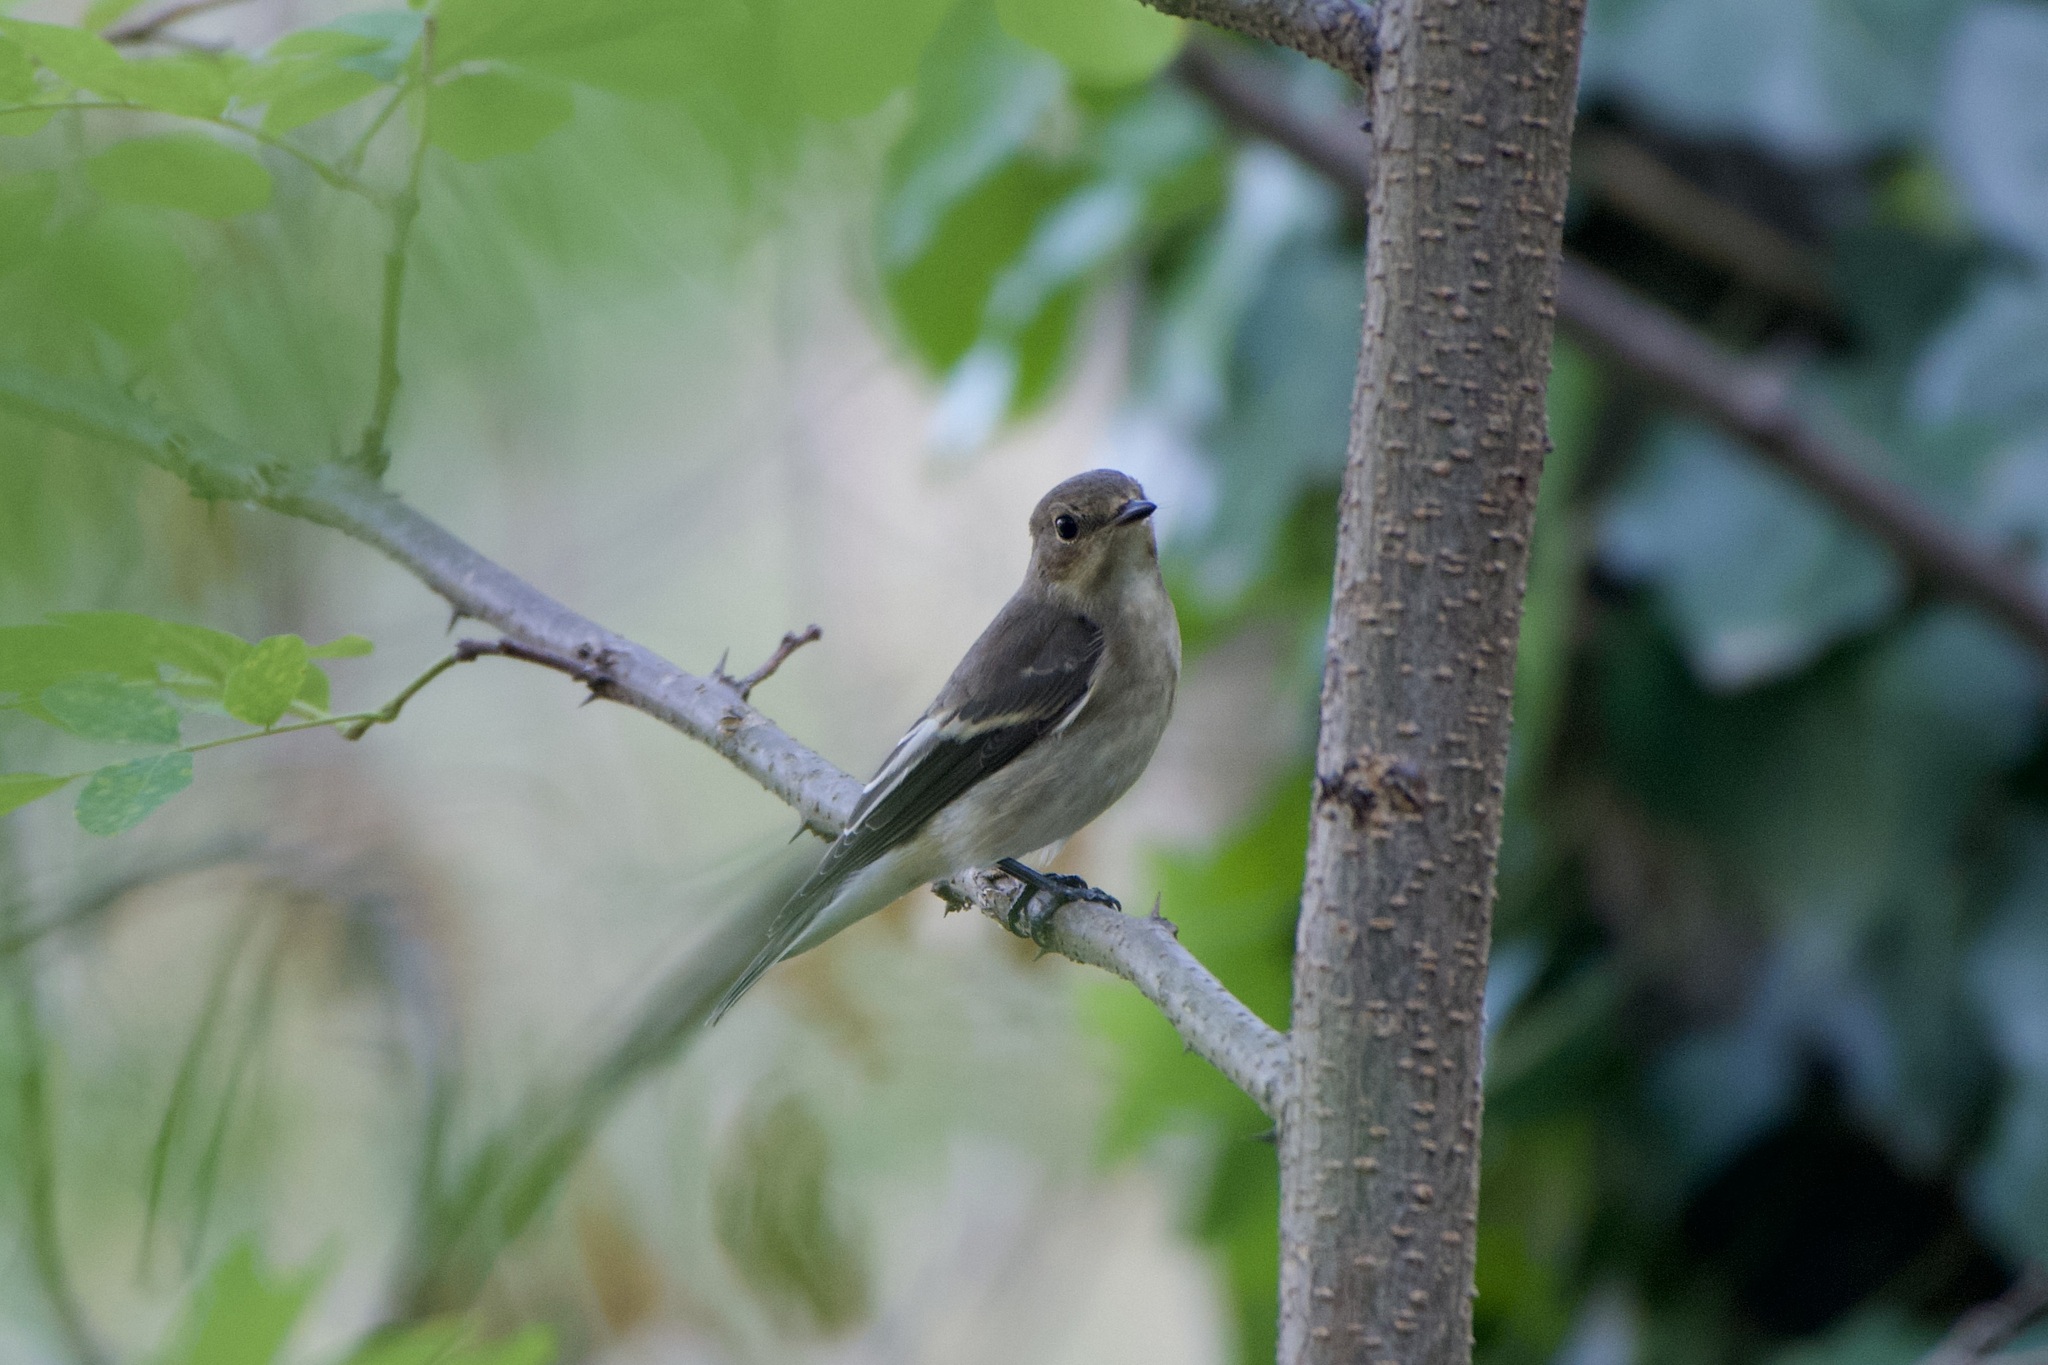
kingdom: Animalia
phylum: Chordata
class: Aves
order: Passeriformes
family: Muscicapidae
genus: Ficedula
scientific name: Ficedula hypoleuca
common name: European pied flycatcher
